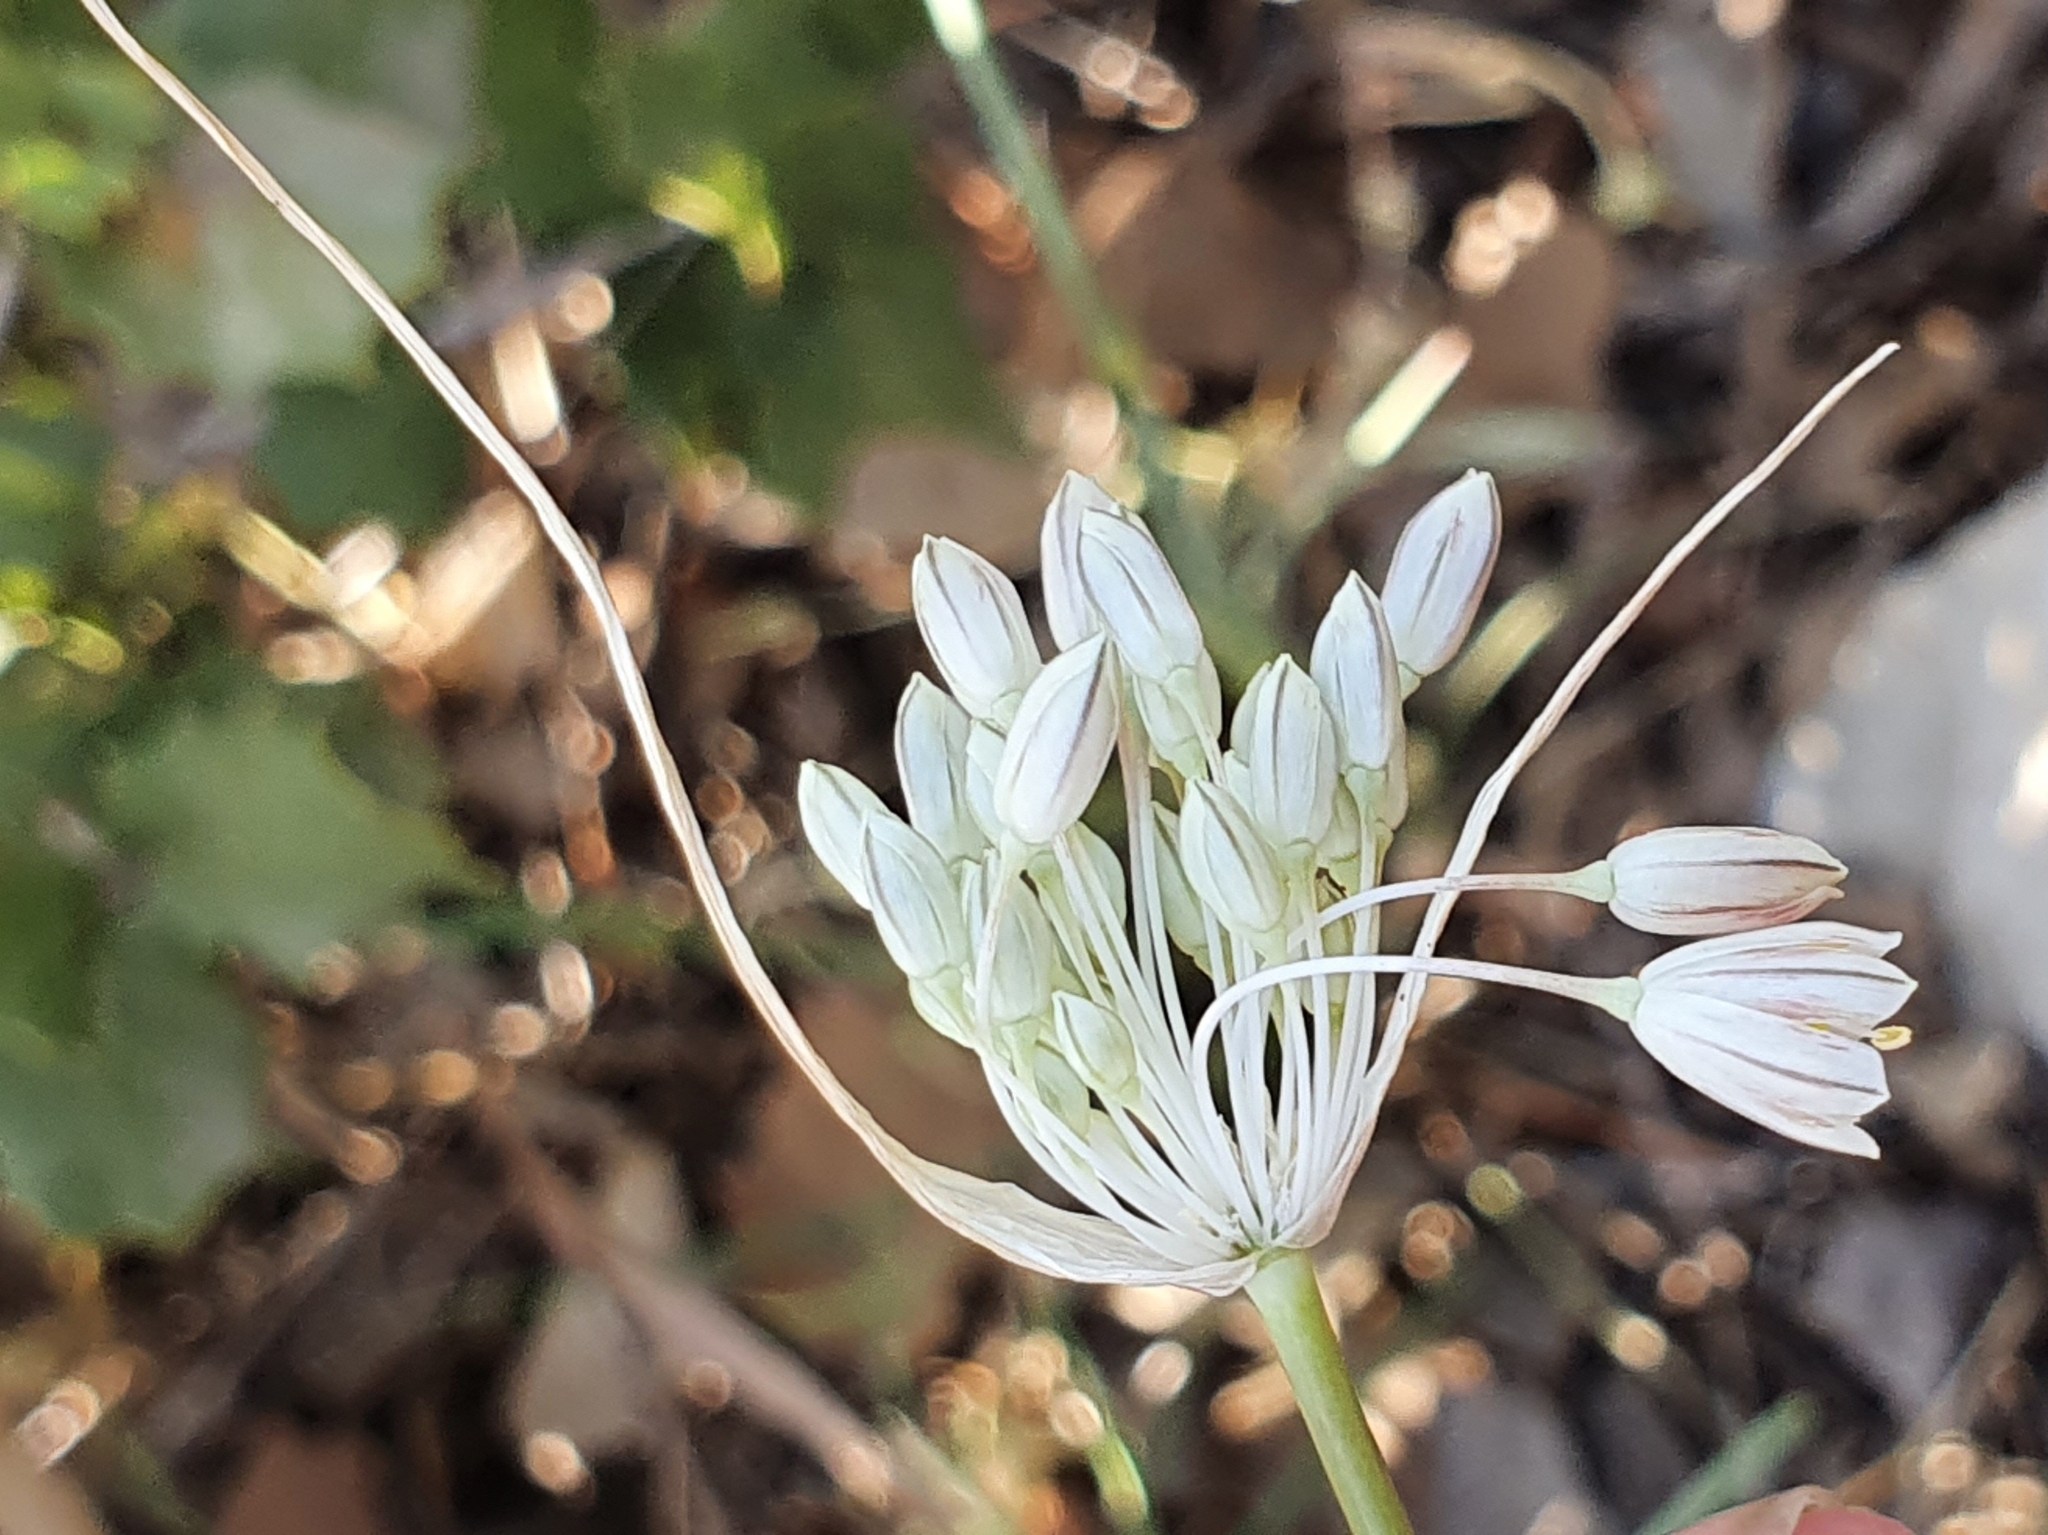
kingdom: Plantae
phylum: Tracheophyta
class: Liliopsida
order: Asparagales
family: Amaryllidaceae
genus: Allium
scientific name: Allium antiatlanticum
